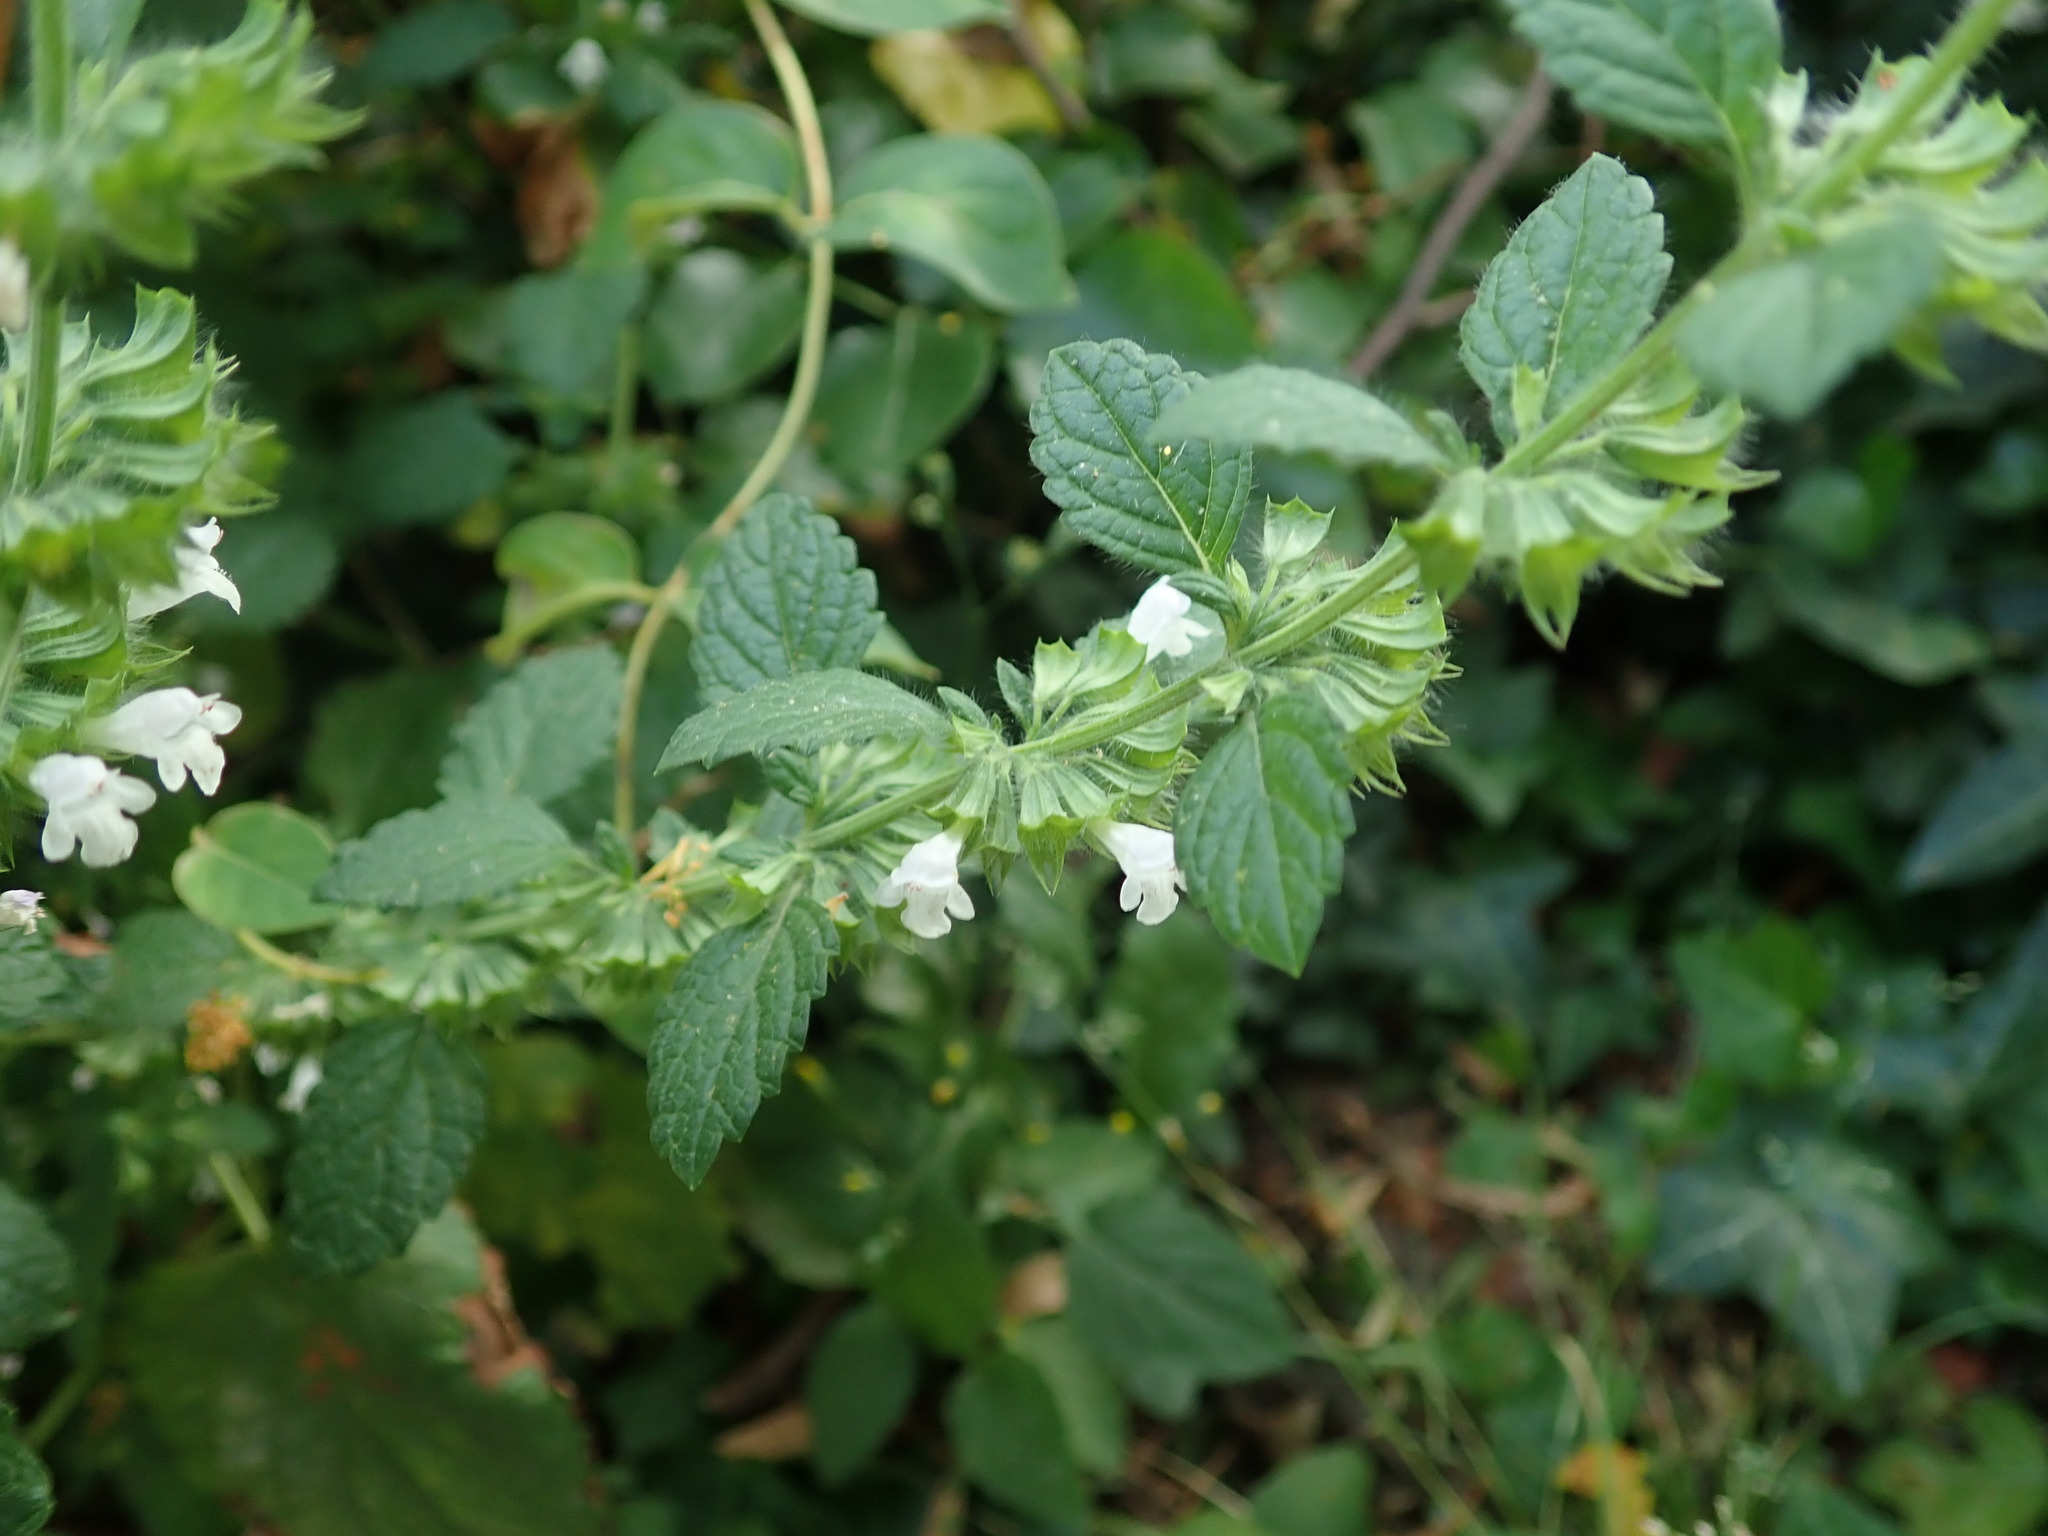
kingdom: Plantae
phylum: Tracheophyta
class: Magnoliopsida
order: Lamiales
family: Lamiaceae
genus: Melissa
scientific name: Melissa officinalis
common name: Balm
